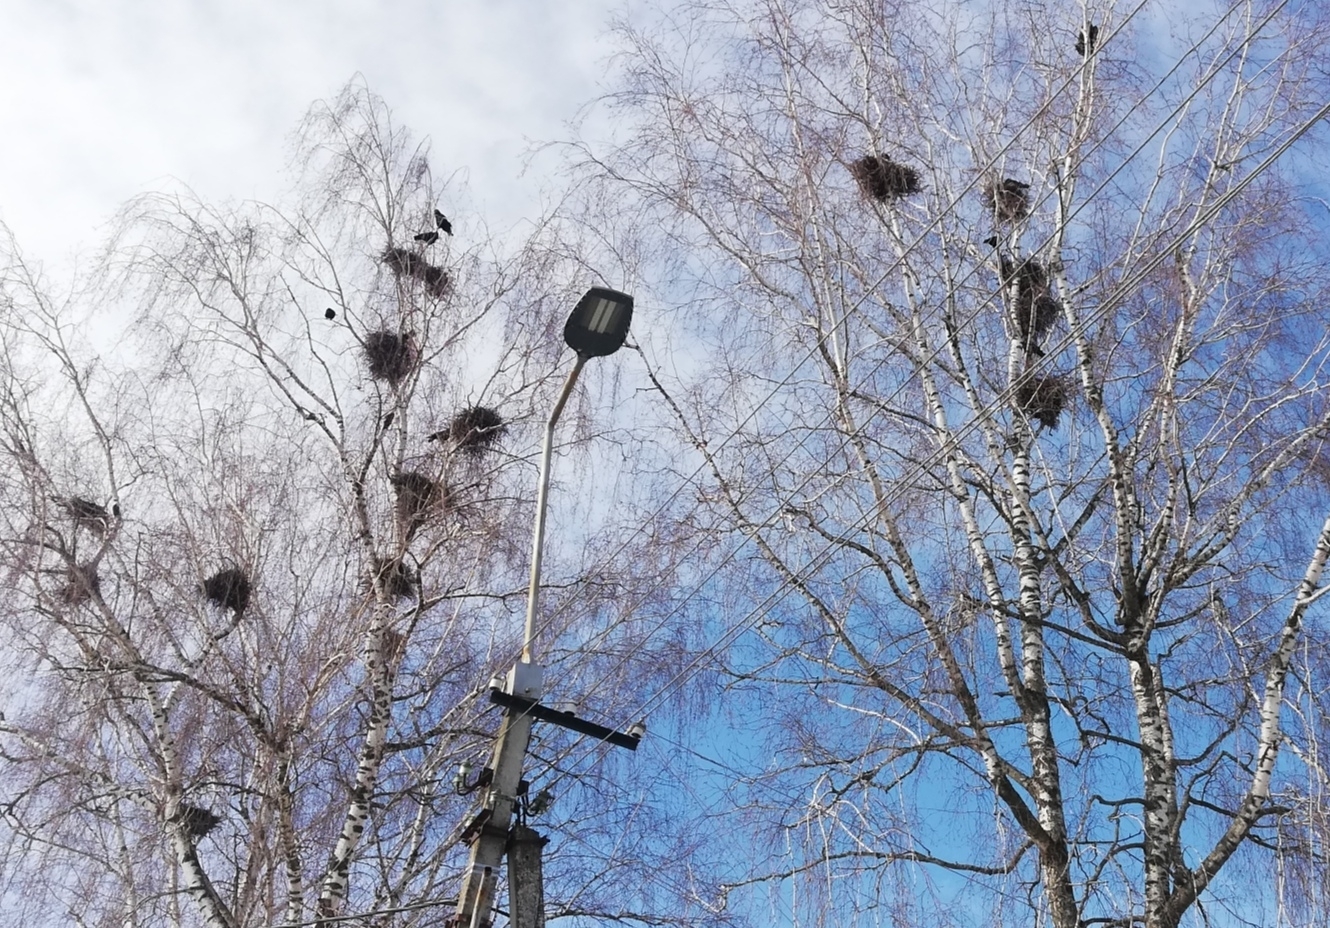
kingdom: Animalia
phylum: Chordata
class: Aves
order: Passeriformes
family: Corvidae
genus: Corvus
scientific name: Corvus frugilegus
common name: Rook
